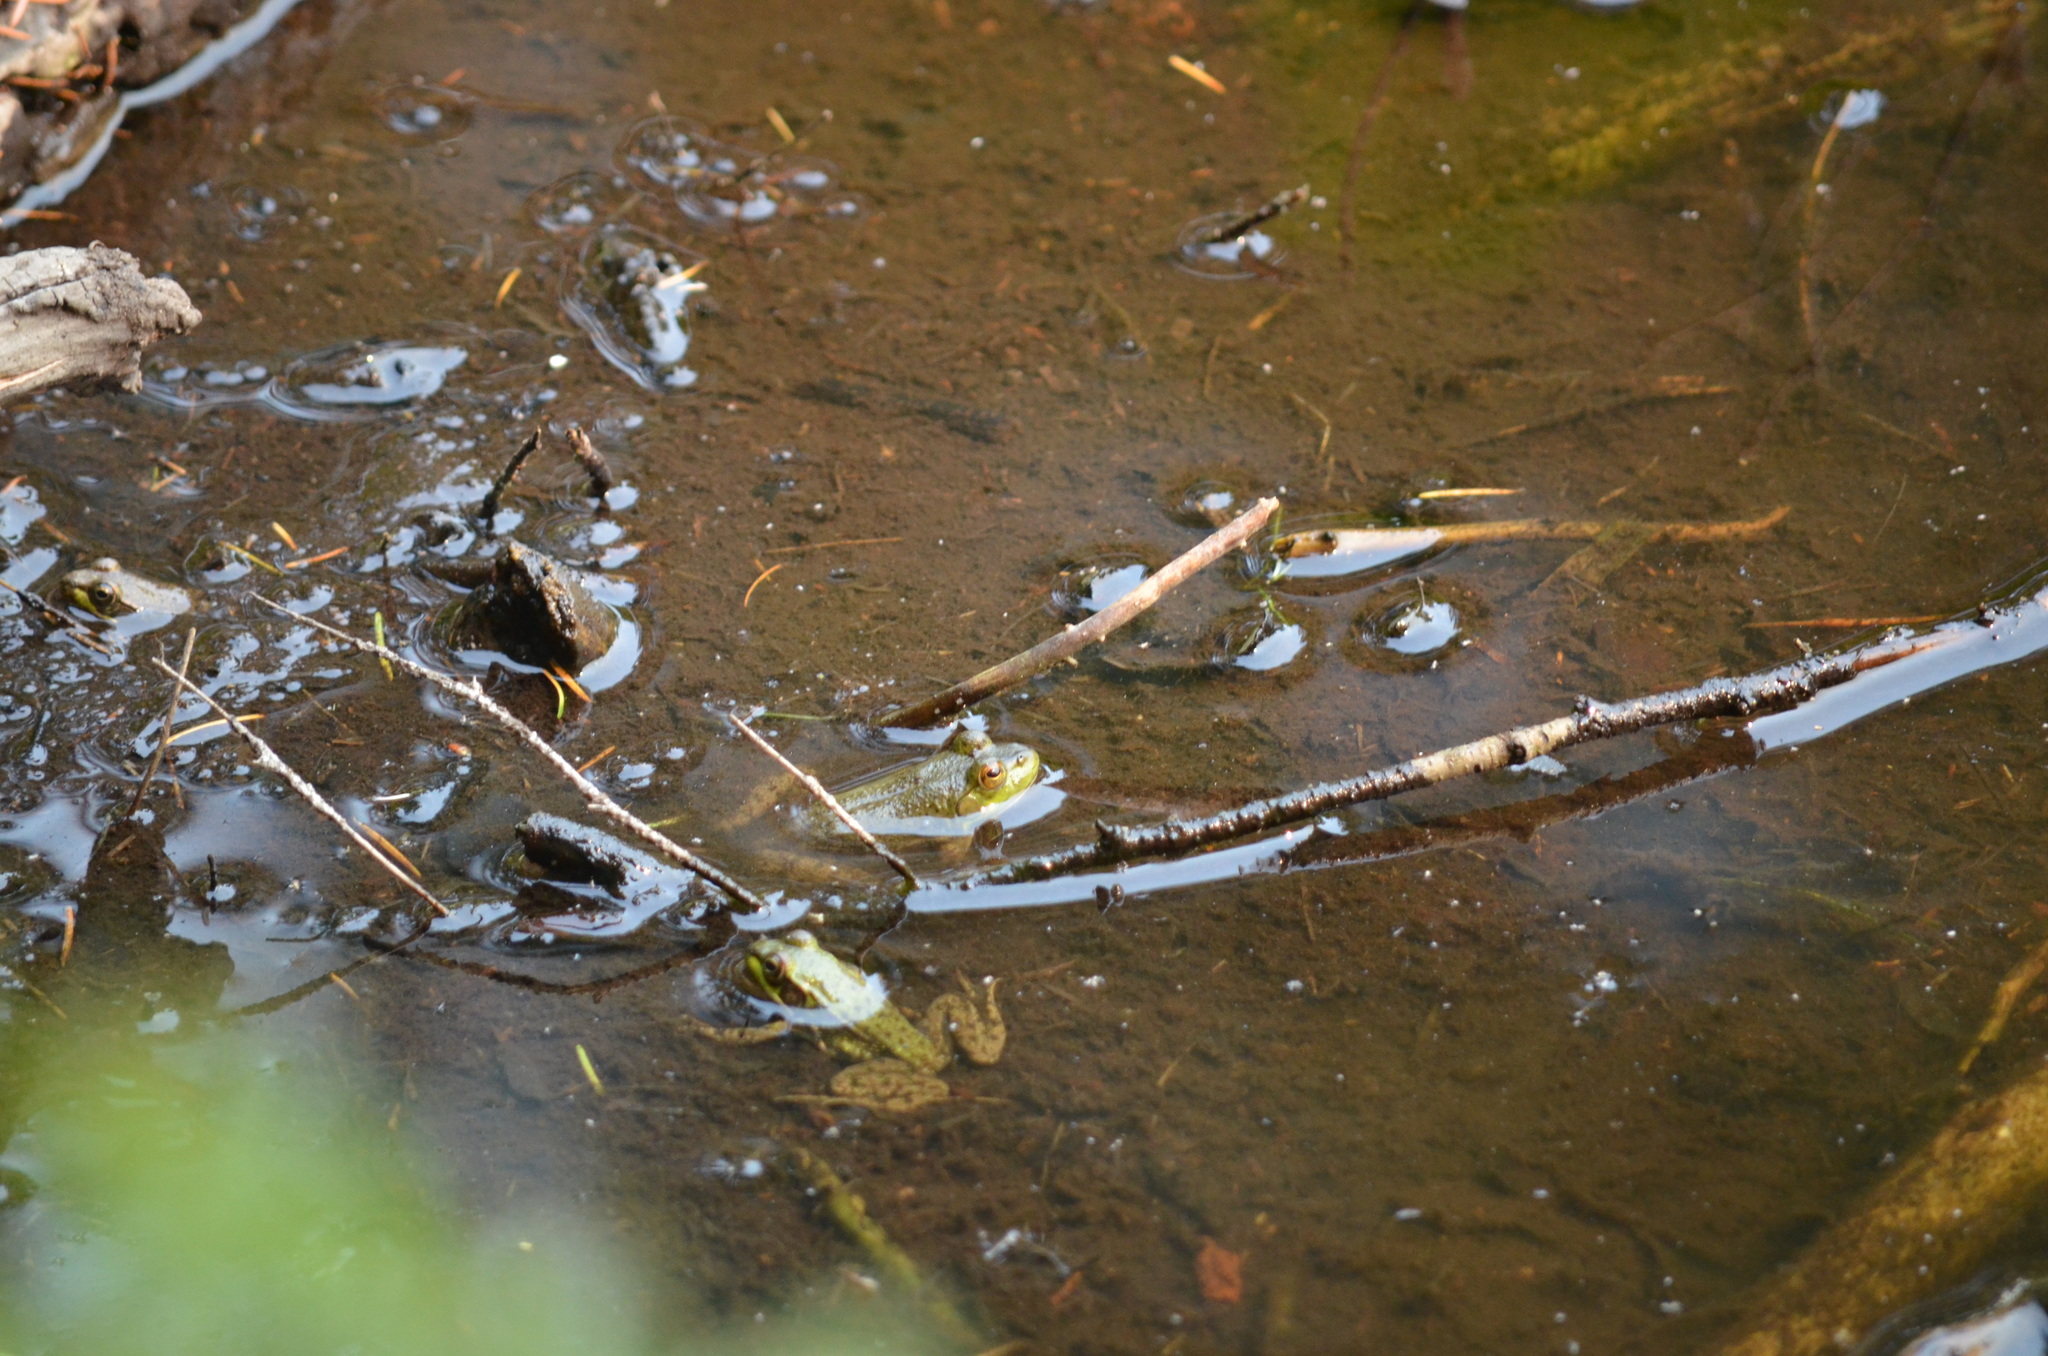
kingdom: Animalia
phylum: Chordata
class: Amphibia
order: Anura
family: Ranidae
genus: Lithobates
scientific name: Lithobates catesbeianus
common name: American bullfrog
